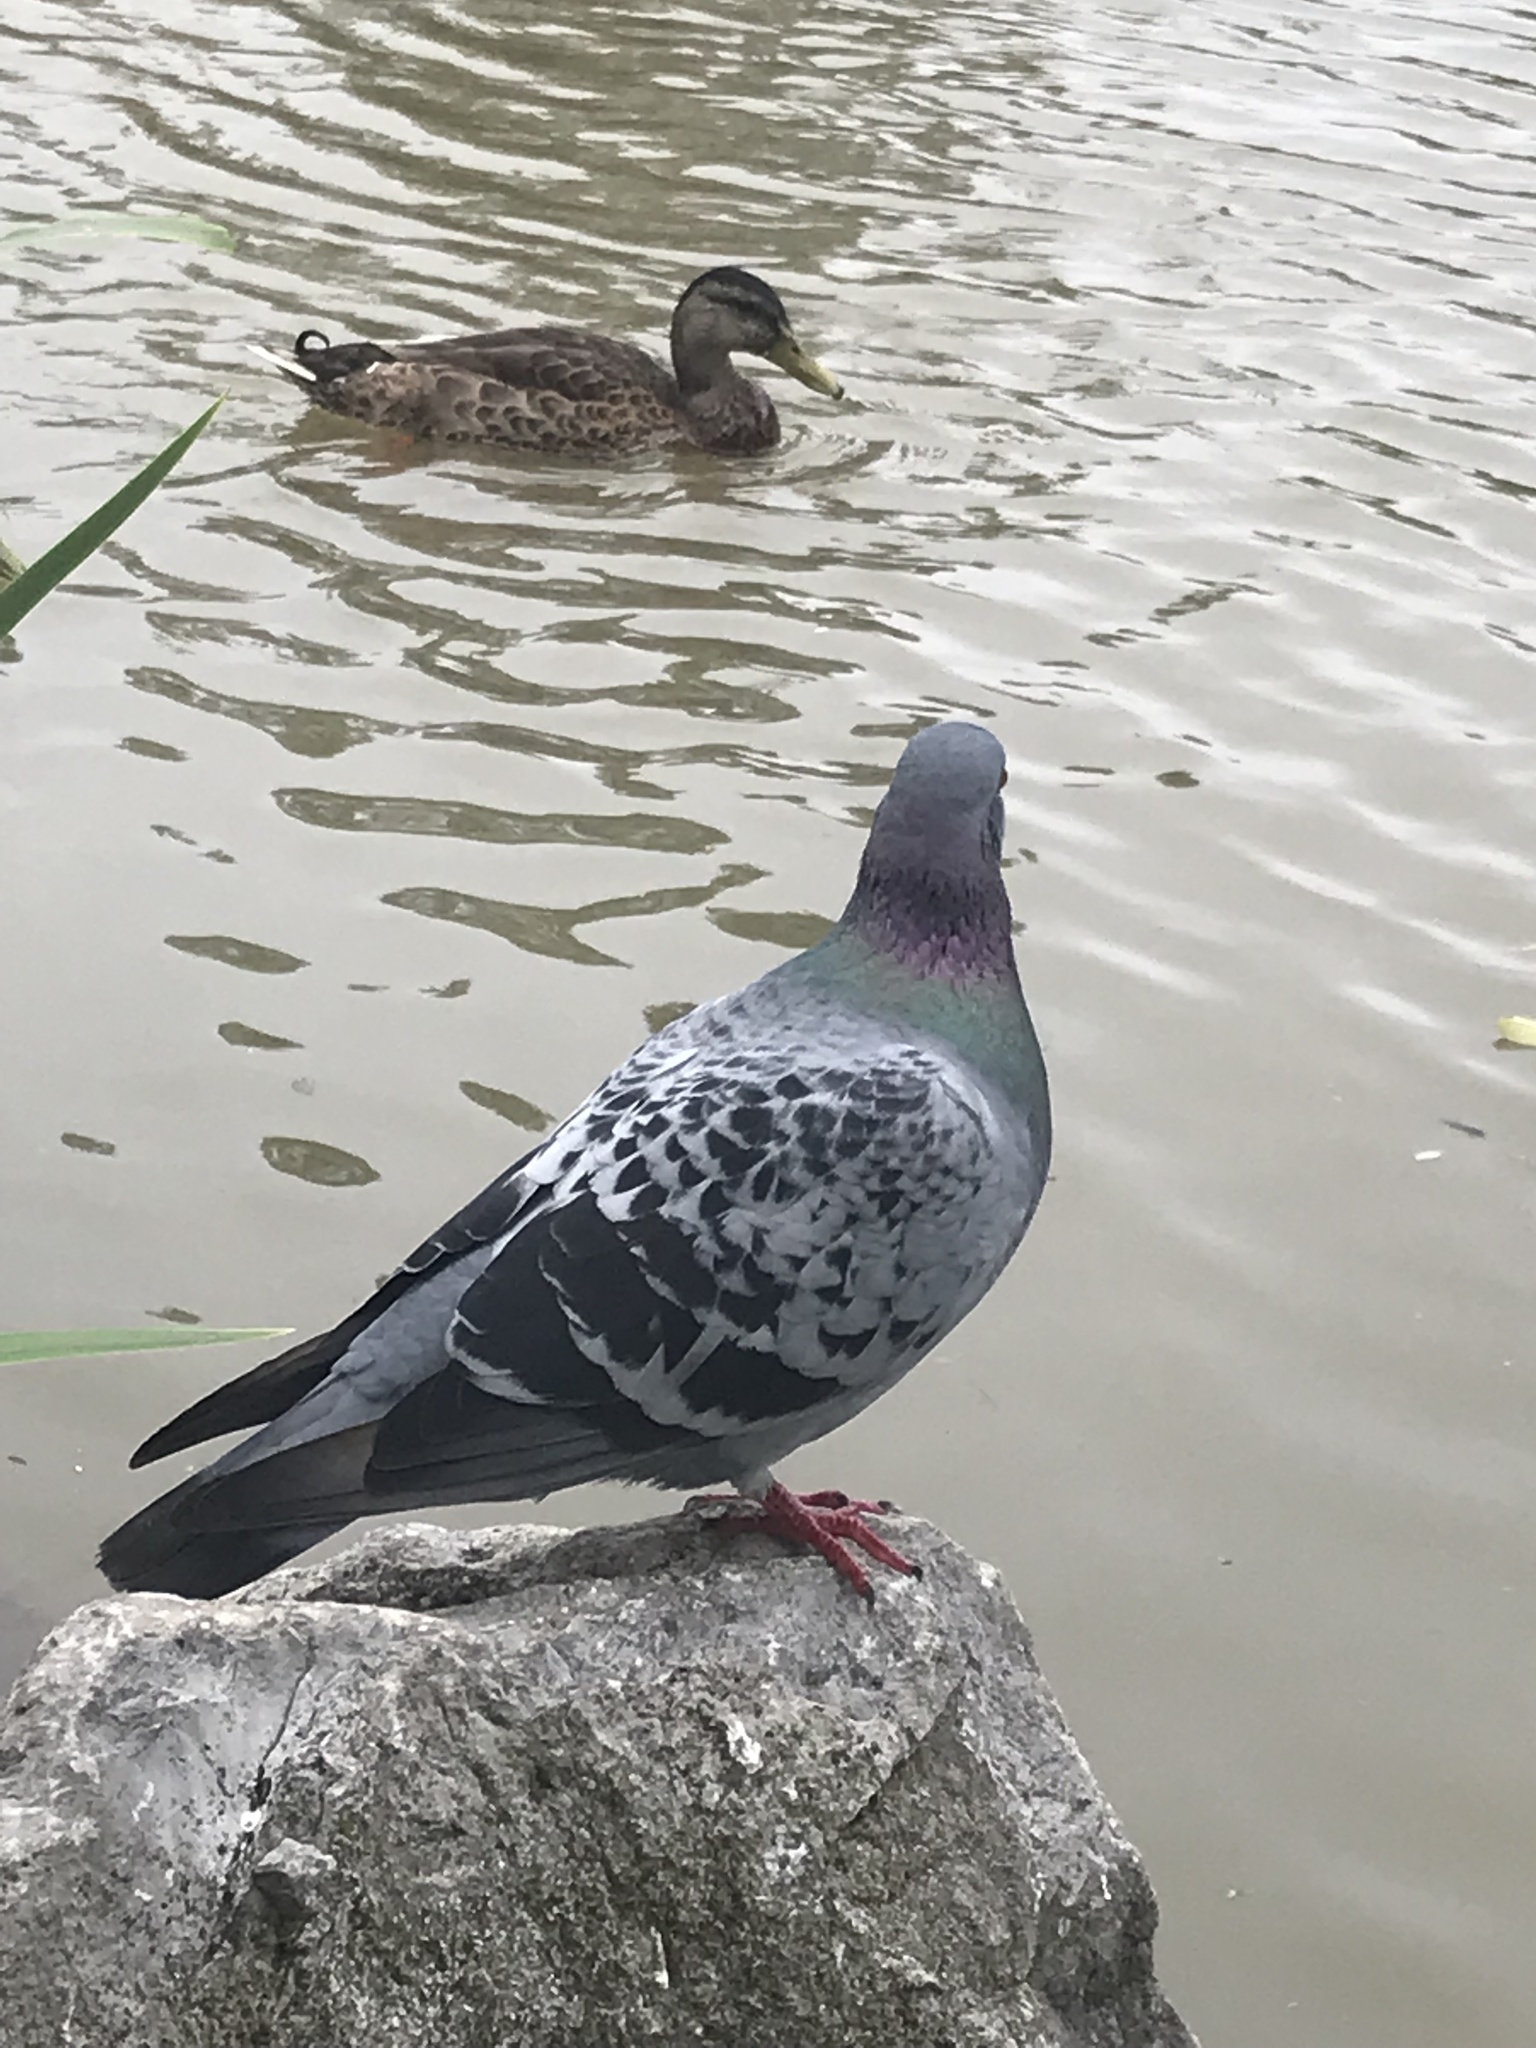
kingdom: Animalia
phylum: Chordata
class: Aves
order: Columbiformes
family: Columbidae
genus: Columba
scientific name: Columba livia
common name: Rock pigeon
